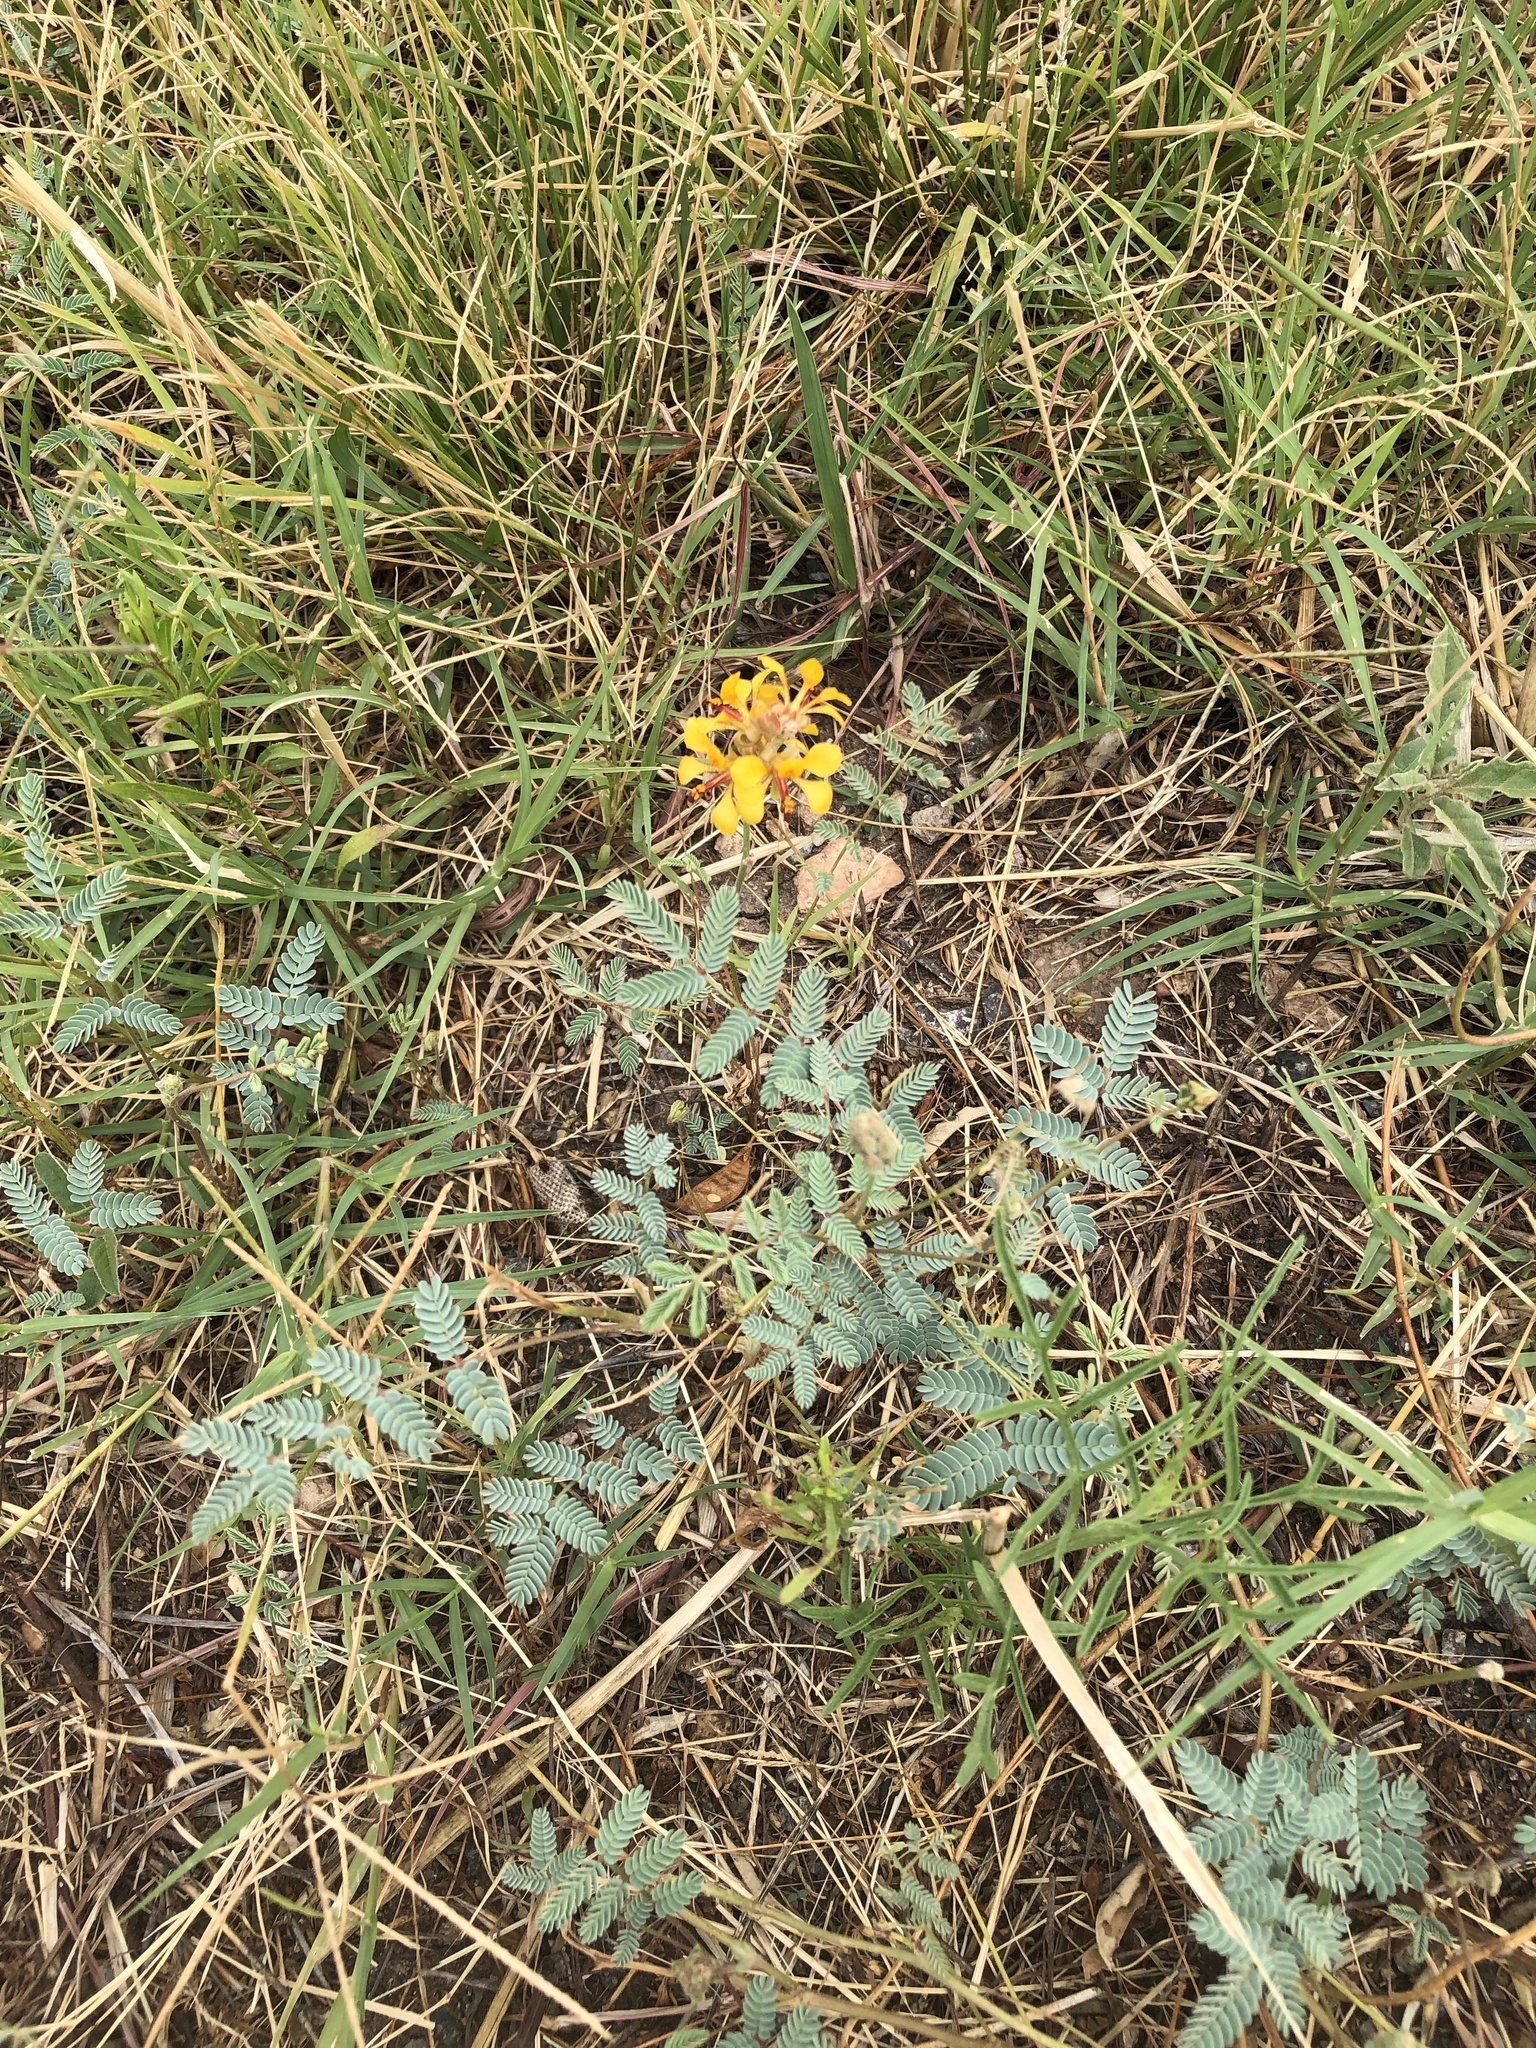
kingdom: Plantae
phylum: Tracheophyta
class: Magnoliopsida
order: Fabales
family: Fabaceae
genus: Hoffmannseggia
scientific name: Hoffmannseggia glauca
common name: Pignut
